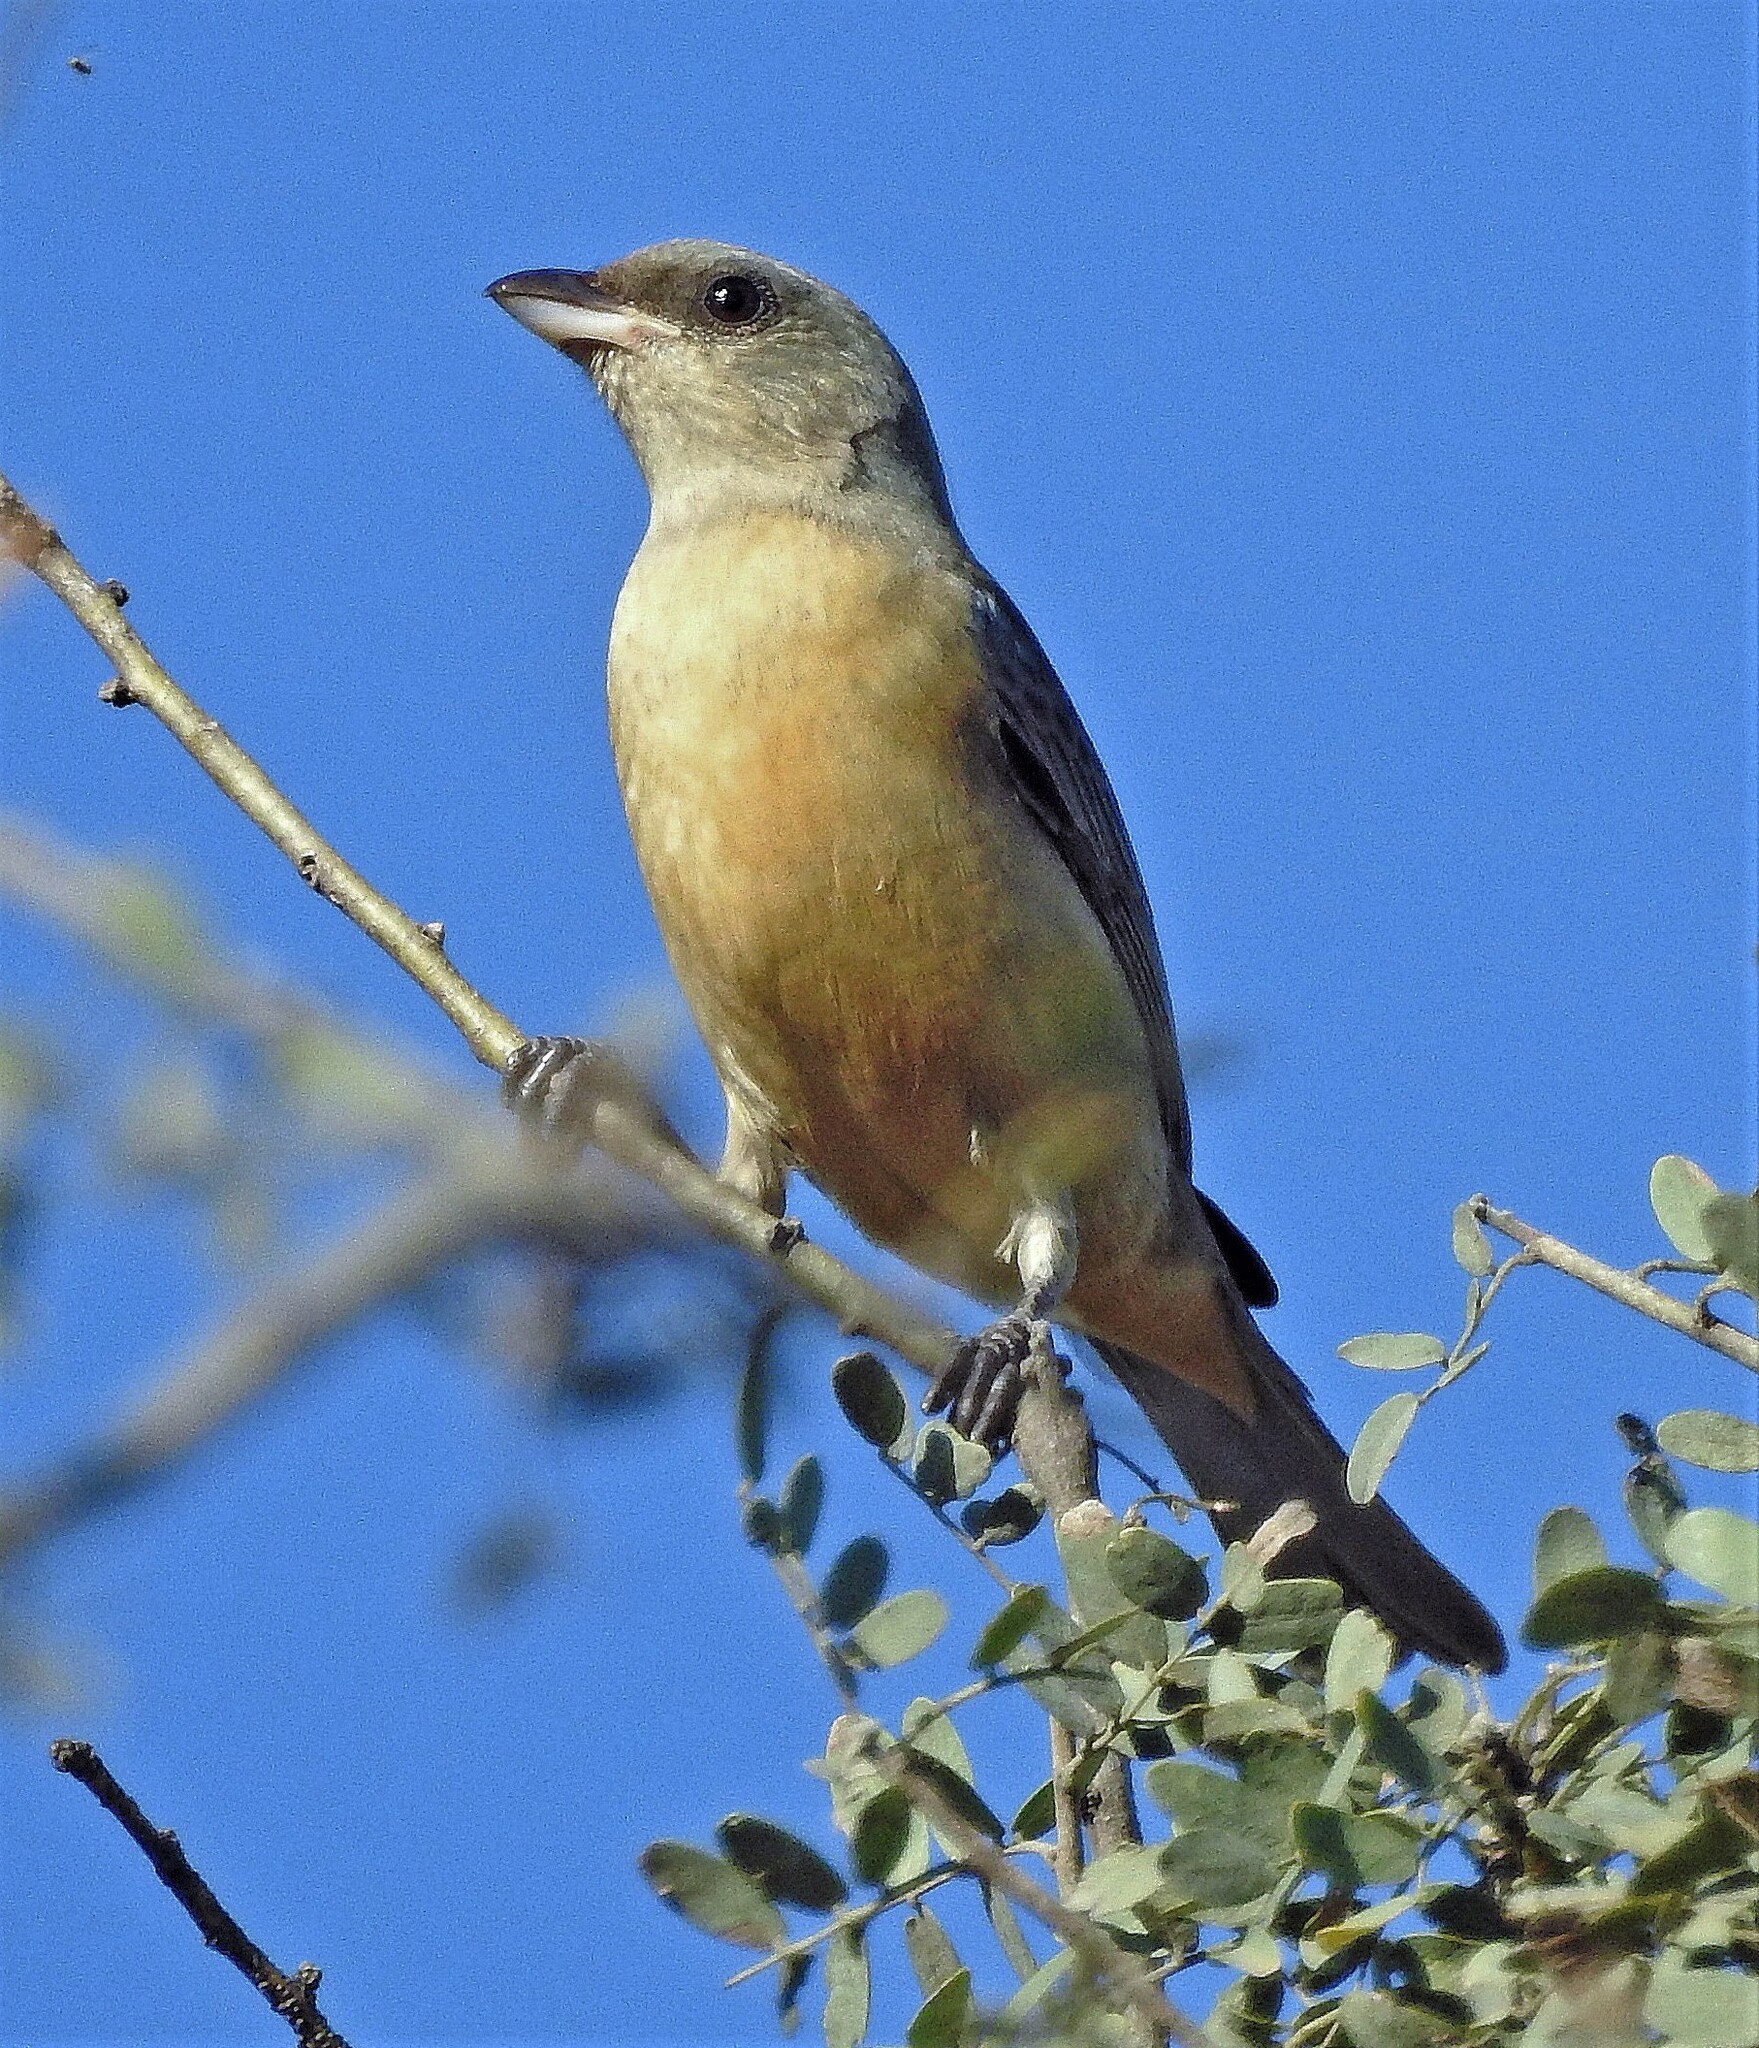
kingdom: Animalia
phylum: Chordata
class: Aves
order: Passeriformes
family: Thraupidae
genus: Rauenia
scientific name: Rauenia bonariensis
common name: Blue-and-yellow tanager
